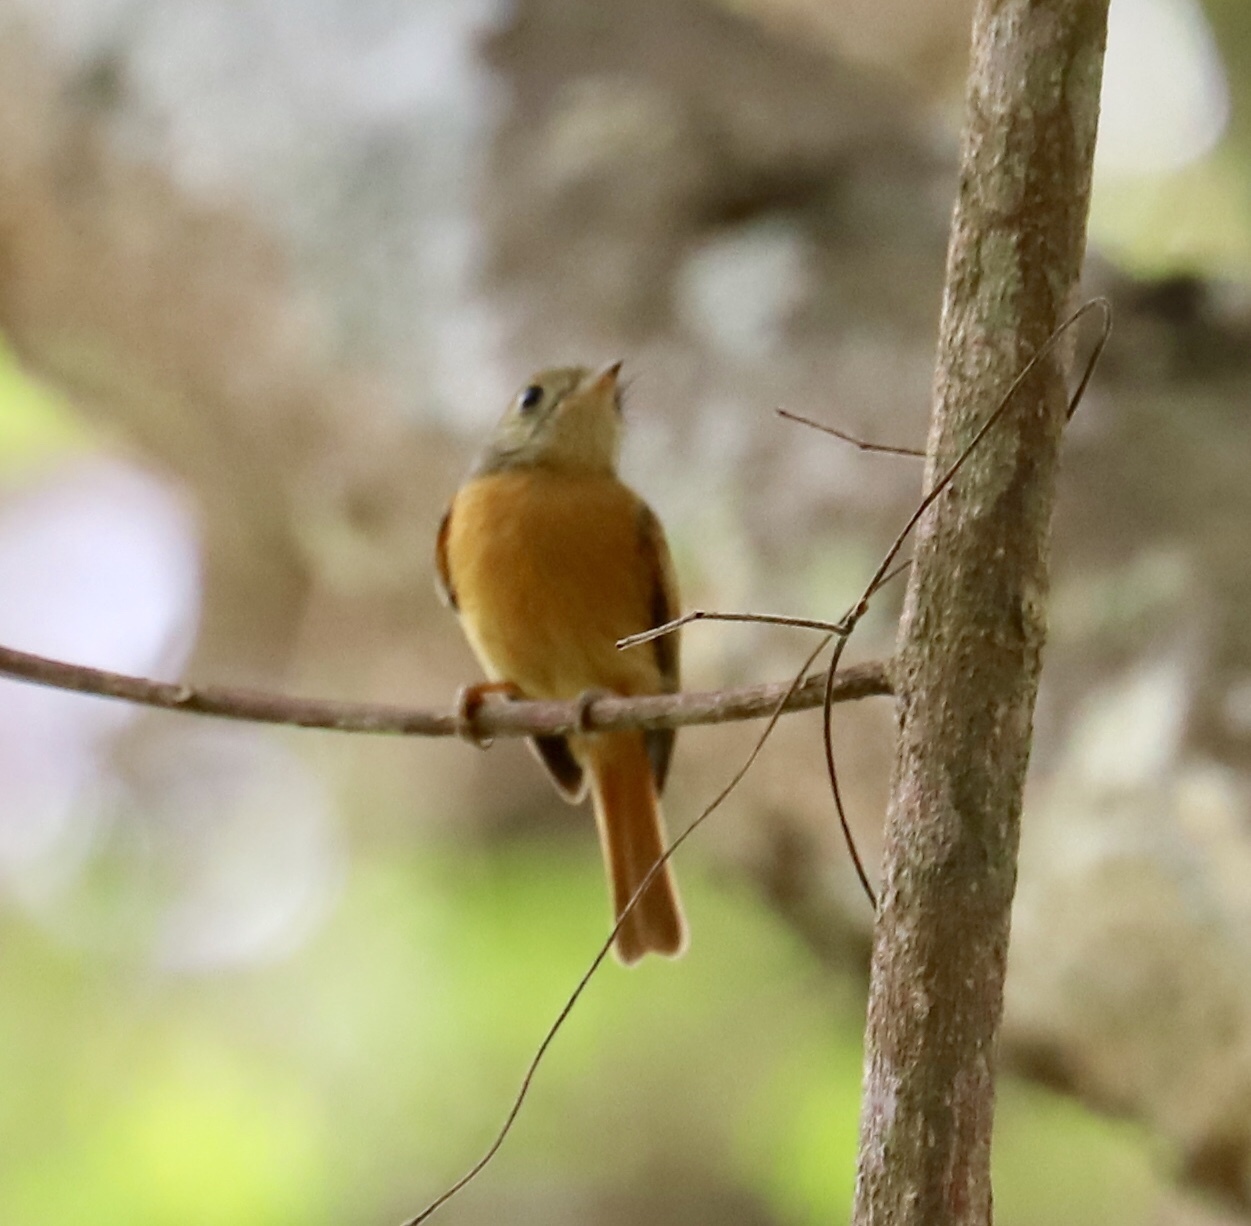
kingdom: Animalia
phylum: Chordata
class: Aves
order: Passeriformes
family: Tyrannidae
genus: Terenotriccus
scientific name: Terenotriccus erythrurus
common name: Ruddy-tailed flycatcher
